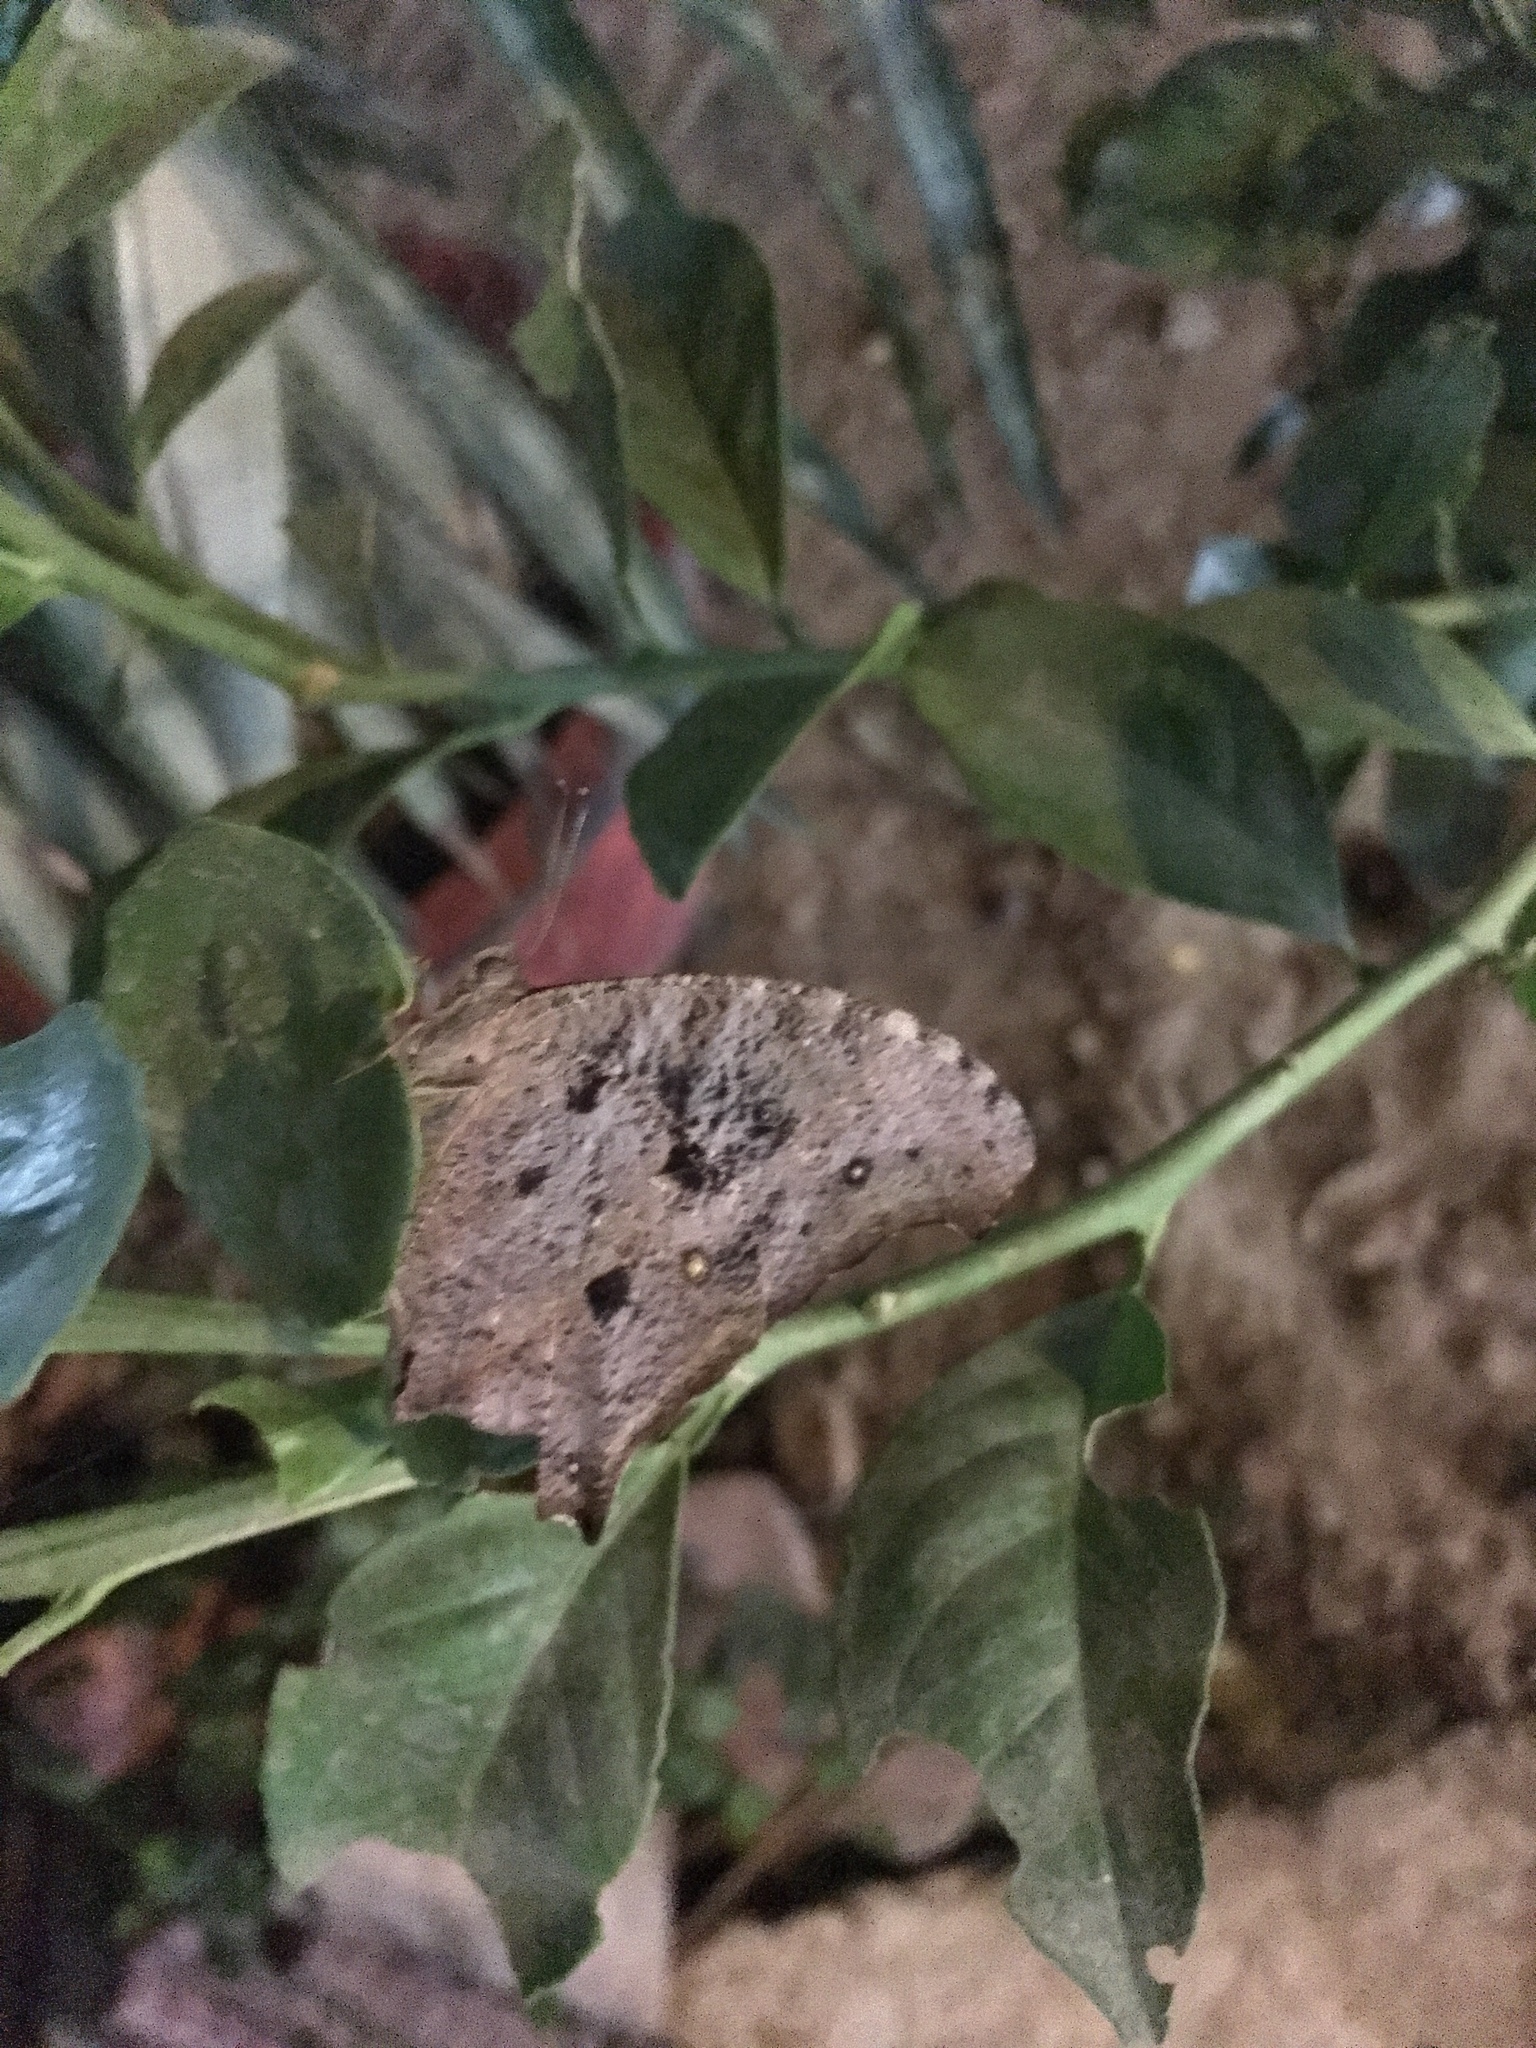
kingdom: Animalia
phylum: Arthropoda
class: Insecta
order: Lepidoptera
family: Nymphalidae
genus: Melanitis
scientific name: Melanitis leda
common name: Twilight brown
